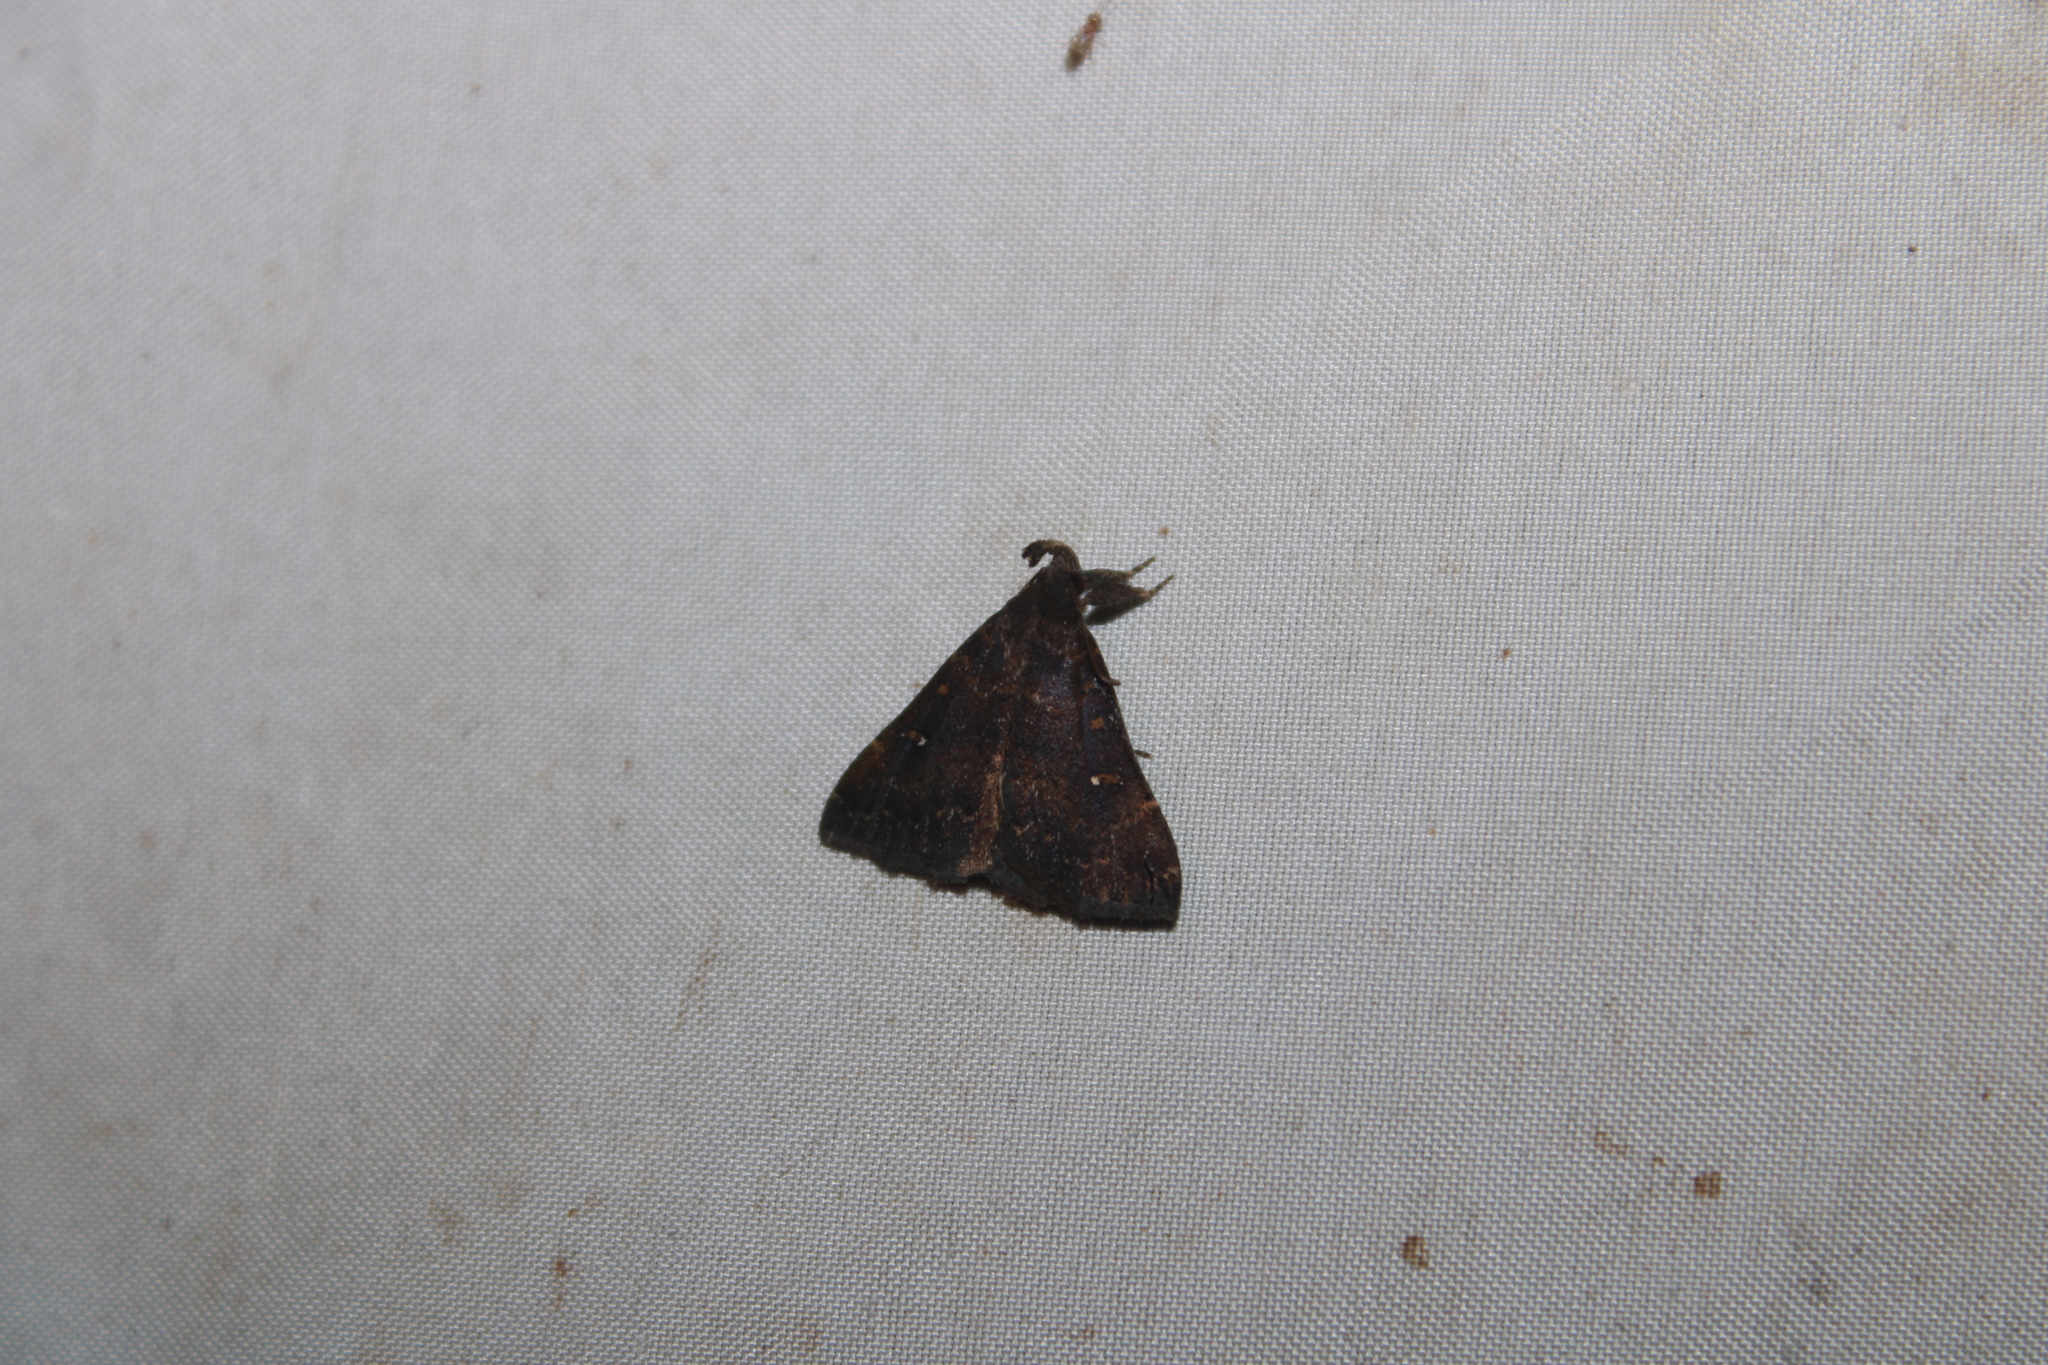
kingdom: Animalia
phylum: Arthropoda
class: Insecta
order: Lepidoptera
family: Erebidae
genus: Hypenula
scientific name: Hypenula cacuminalis
